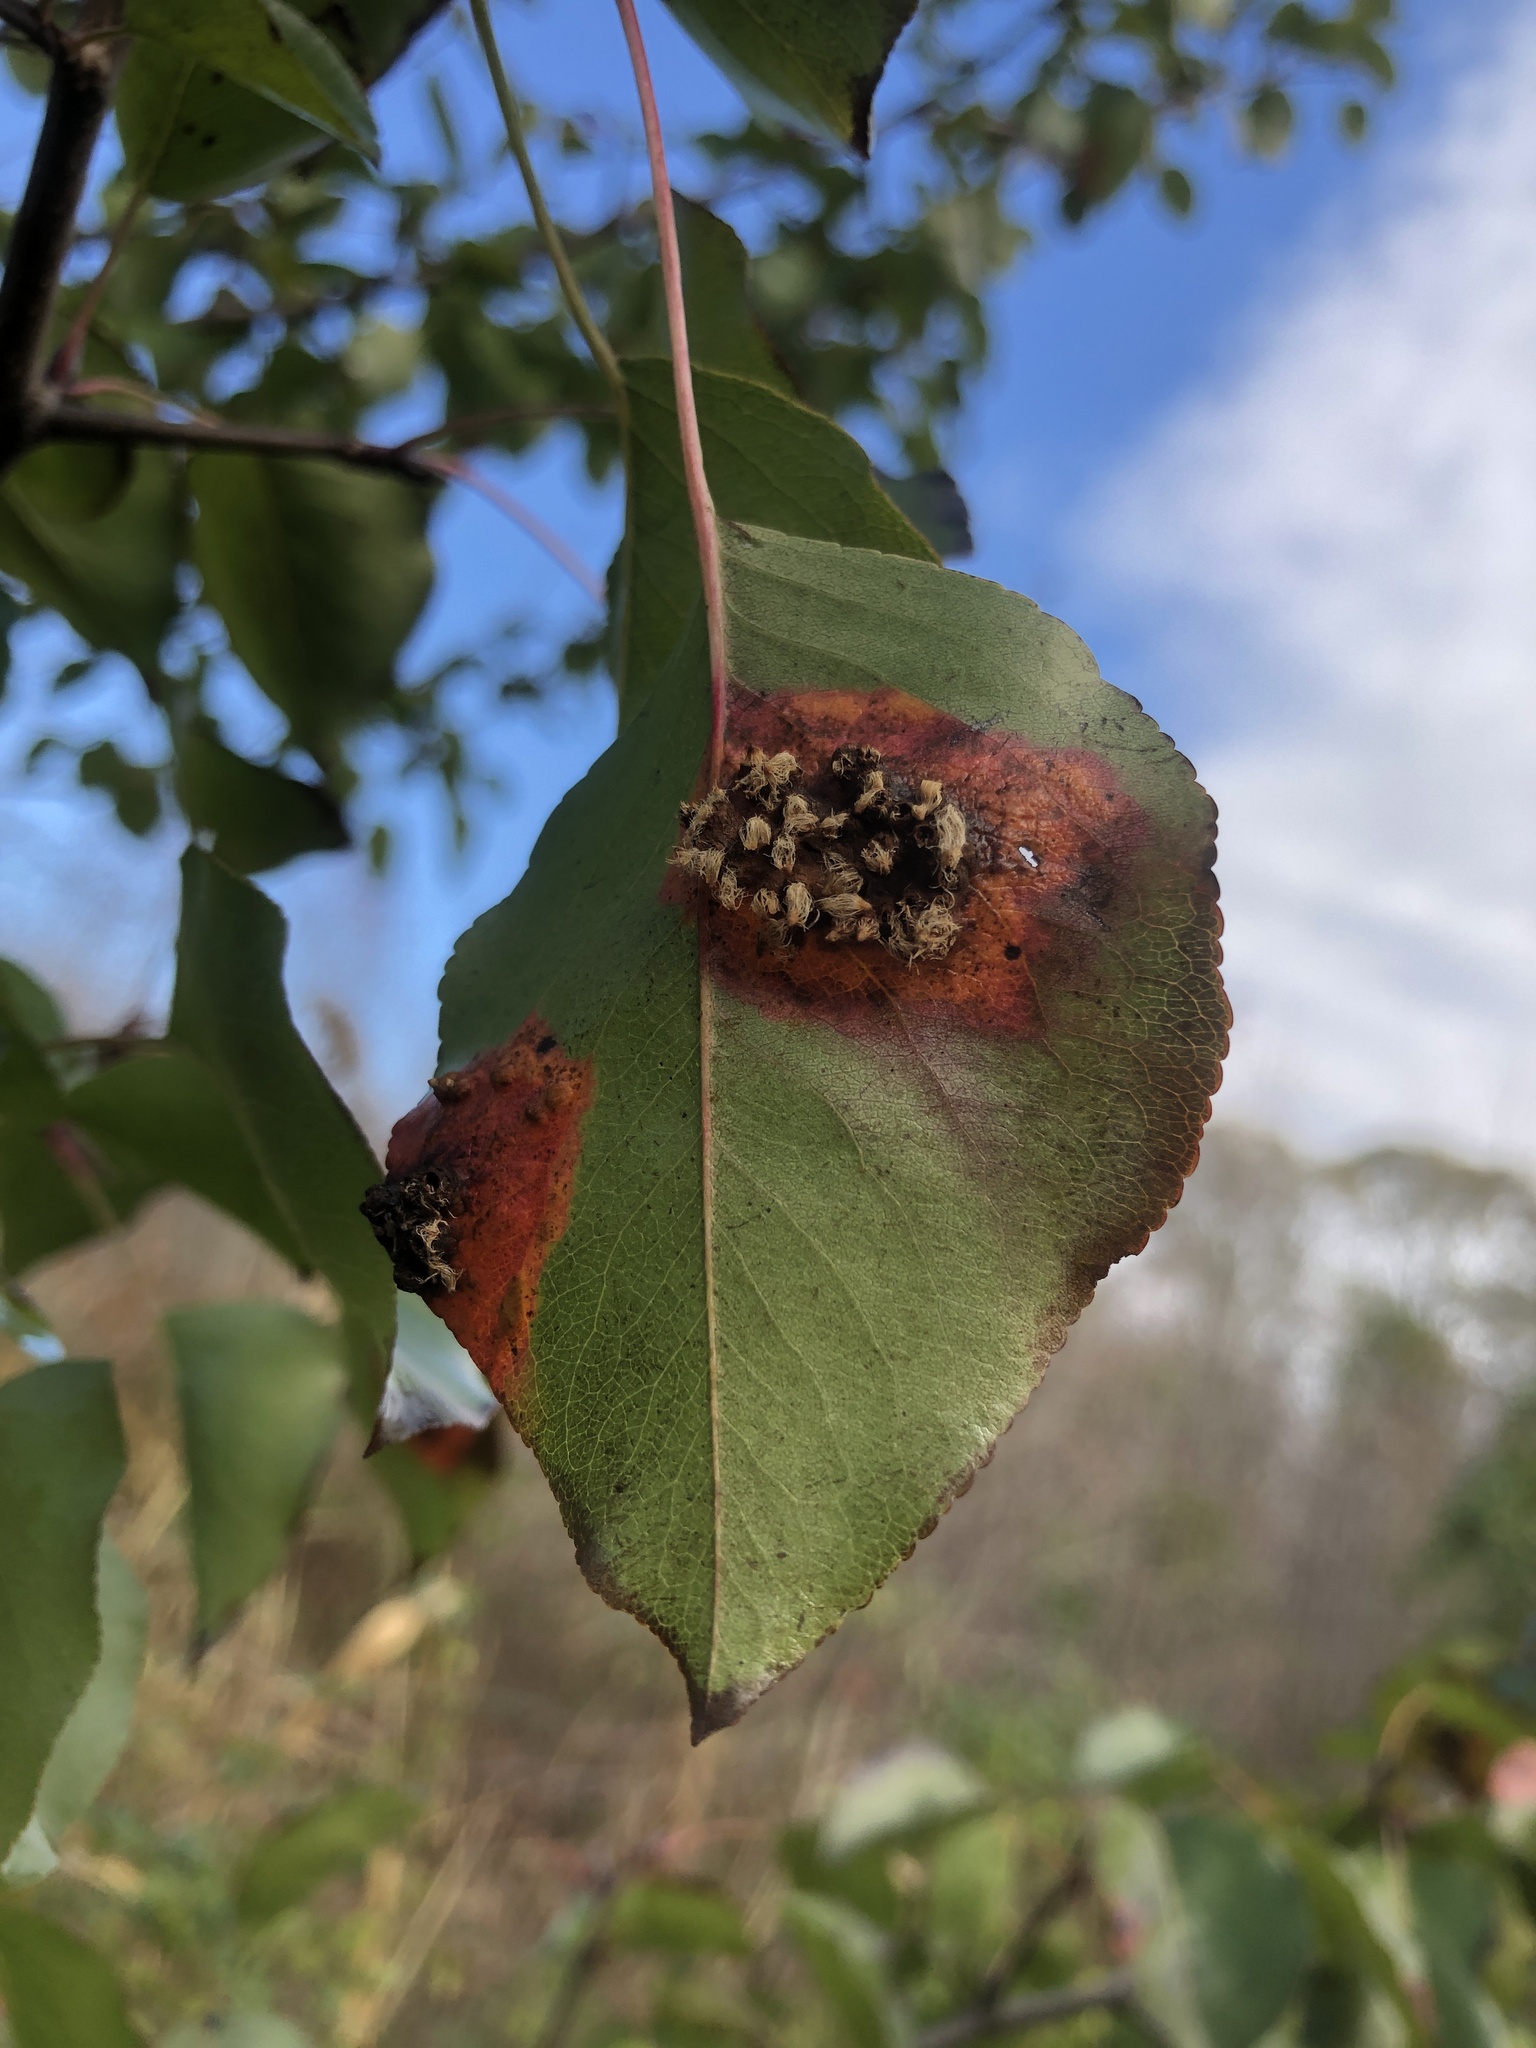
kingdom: Fungi
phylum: Basidiomycota
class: Pucciniomycetes
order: Pucciniales
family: Gymnosporangiaceae
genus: Gymnosporangium
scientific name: Gymnosporangium sabinae
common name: Pear trellis rust fungus
